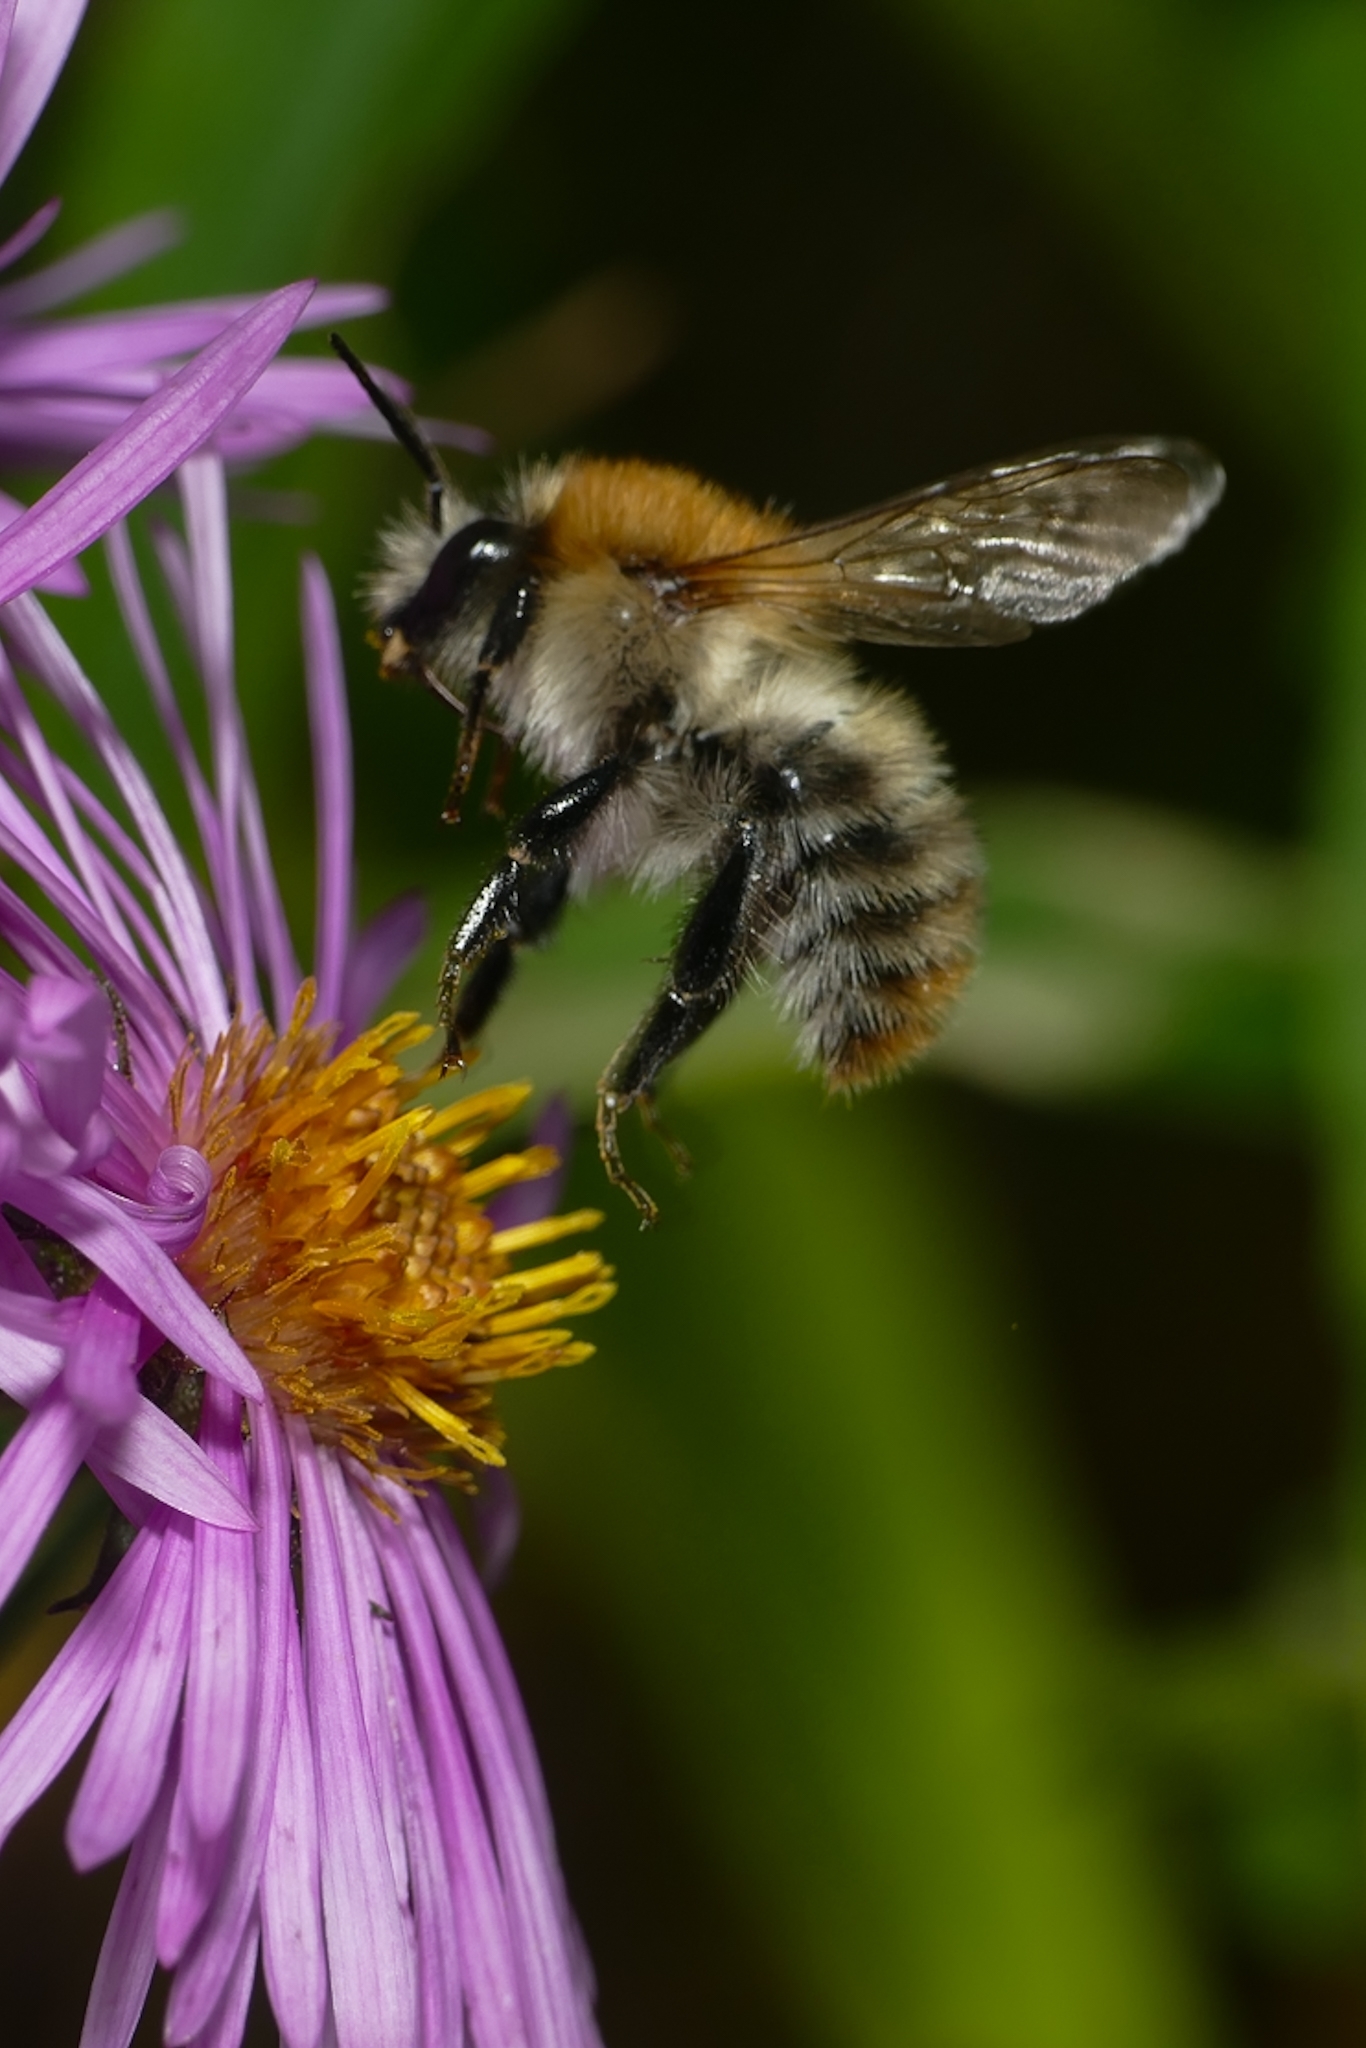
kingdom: Animalia
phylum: Arthropoda
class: Insecta
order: Hymenoptera
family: Apidae
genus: Bombus
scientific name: Bombus pascuorum
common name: Common carder bee
